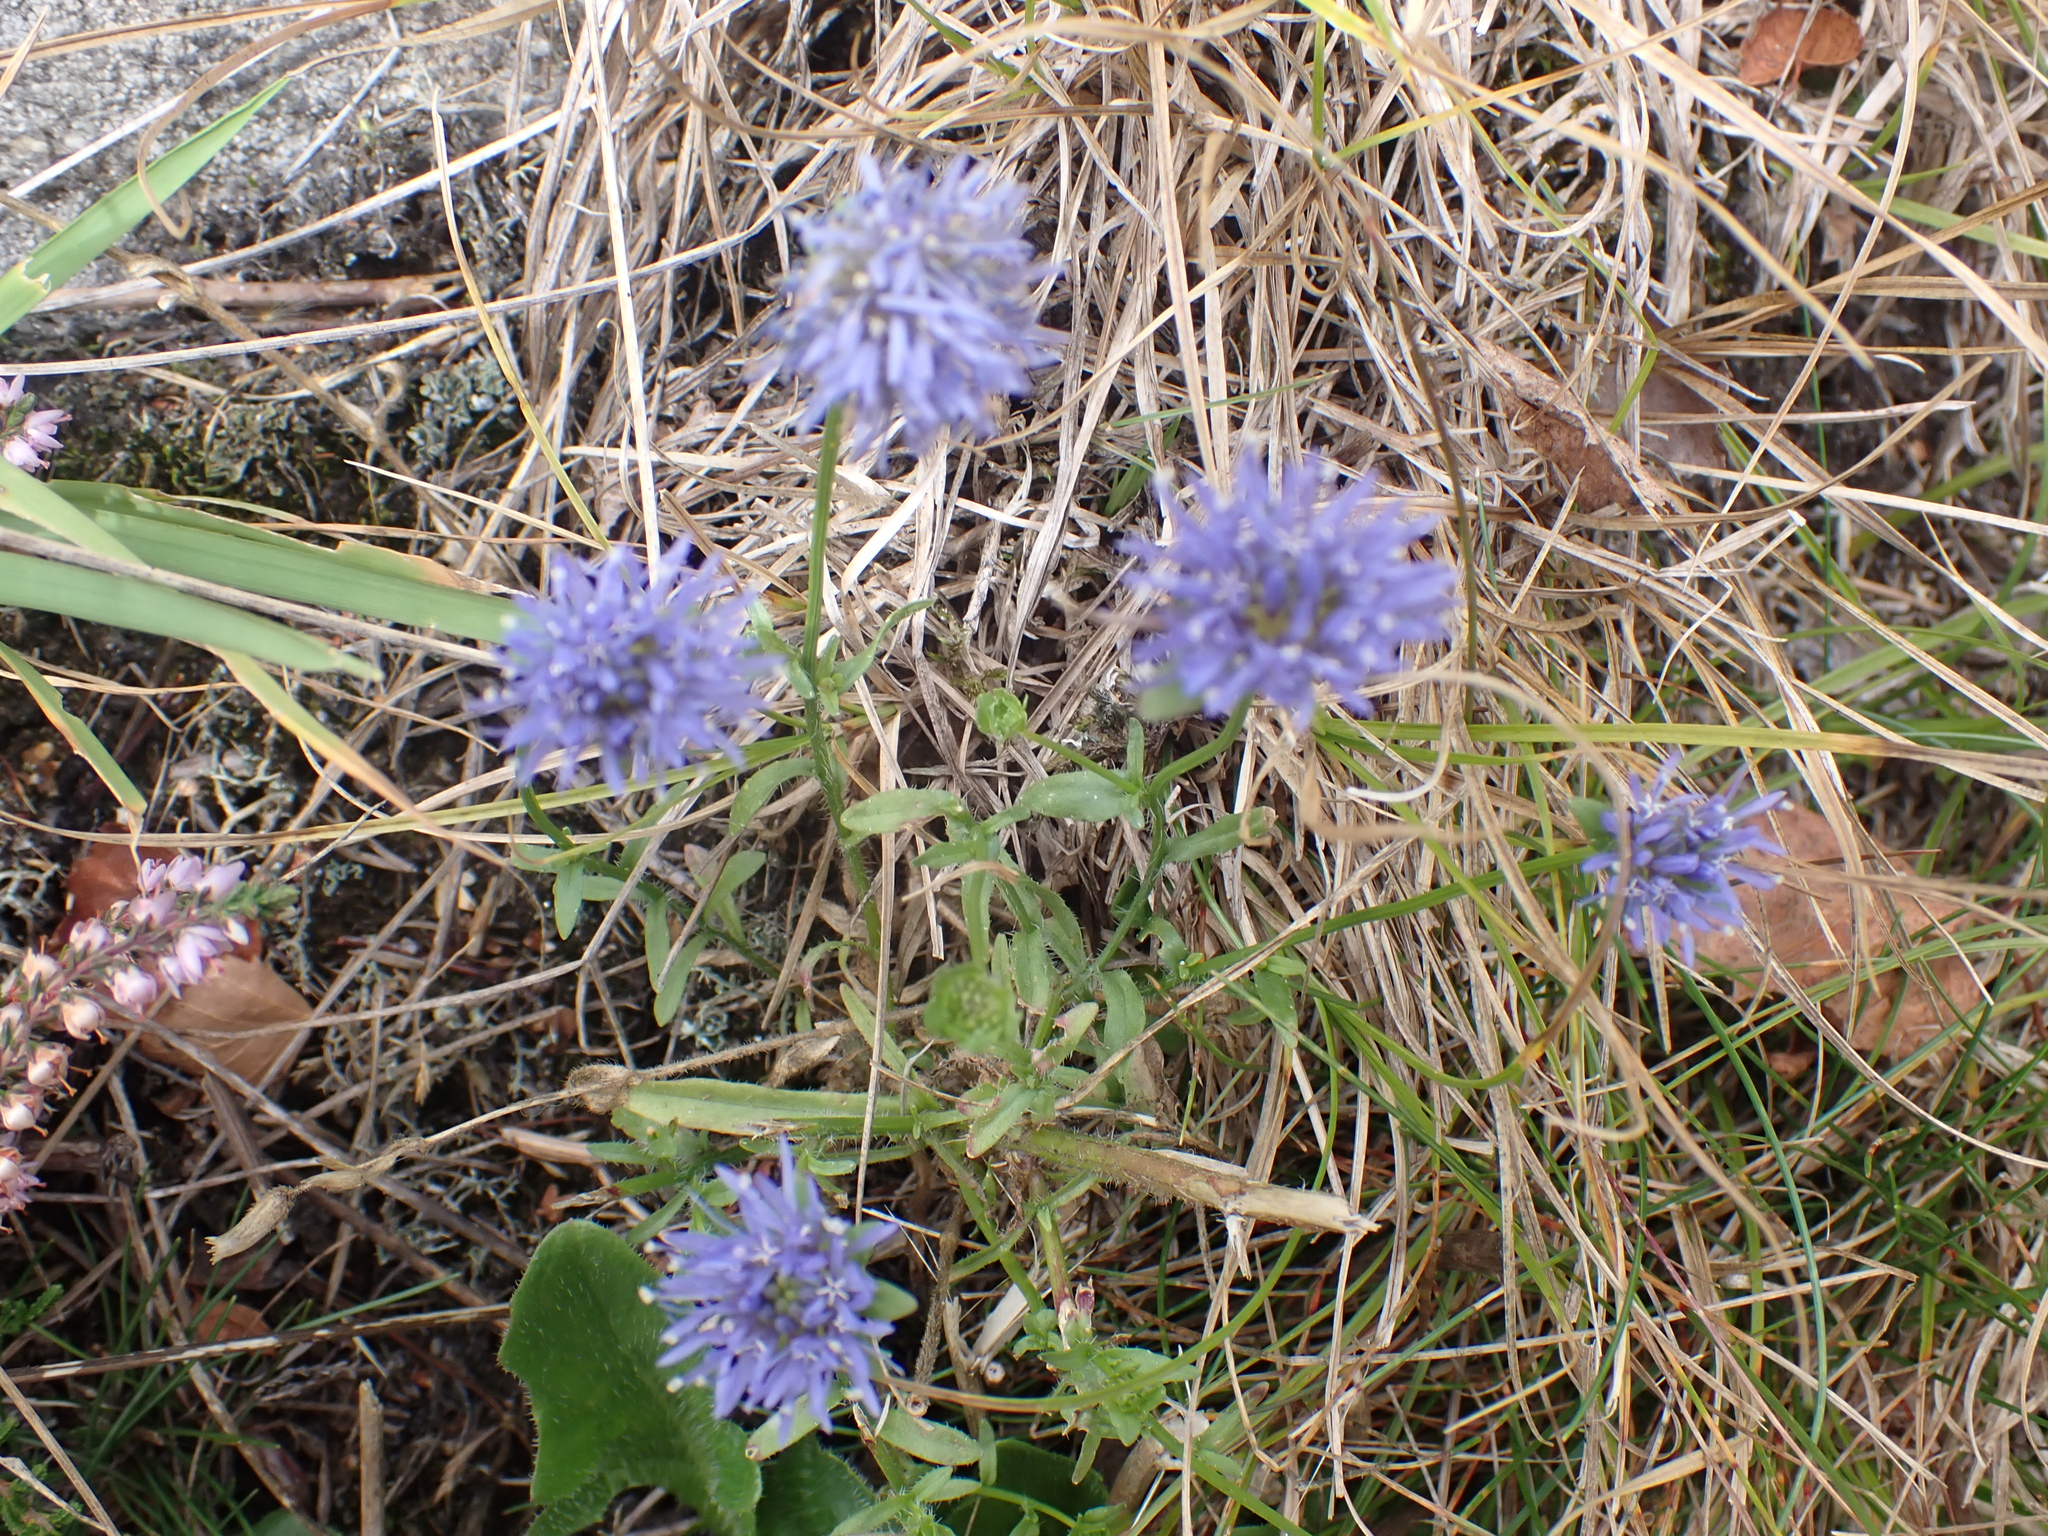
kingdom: Plantae
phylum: Tracheophyta
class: Magnoliopsida
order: Asterales
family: Campanulaceae
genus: Jasione
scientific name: Jasione montana
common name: Sheep's-bit
